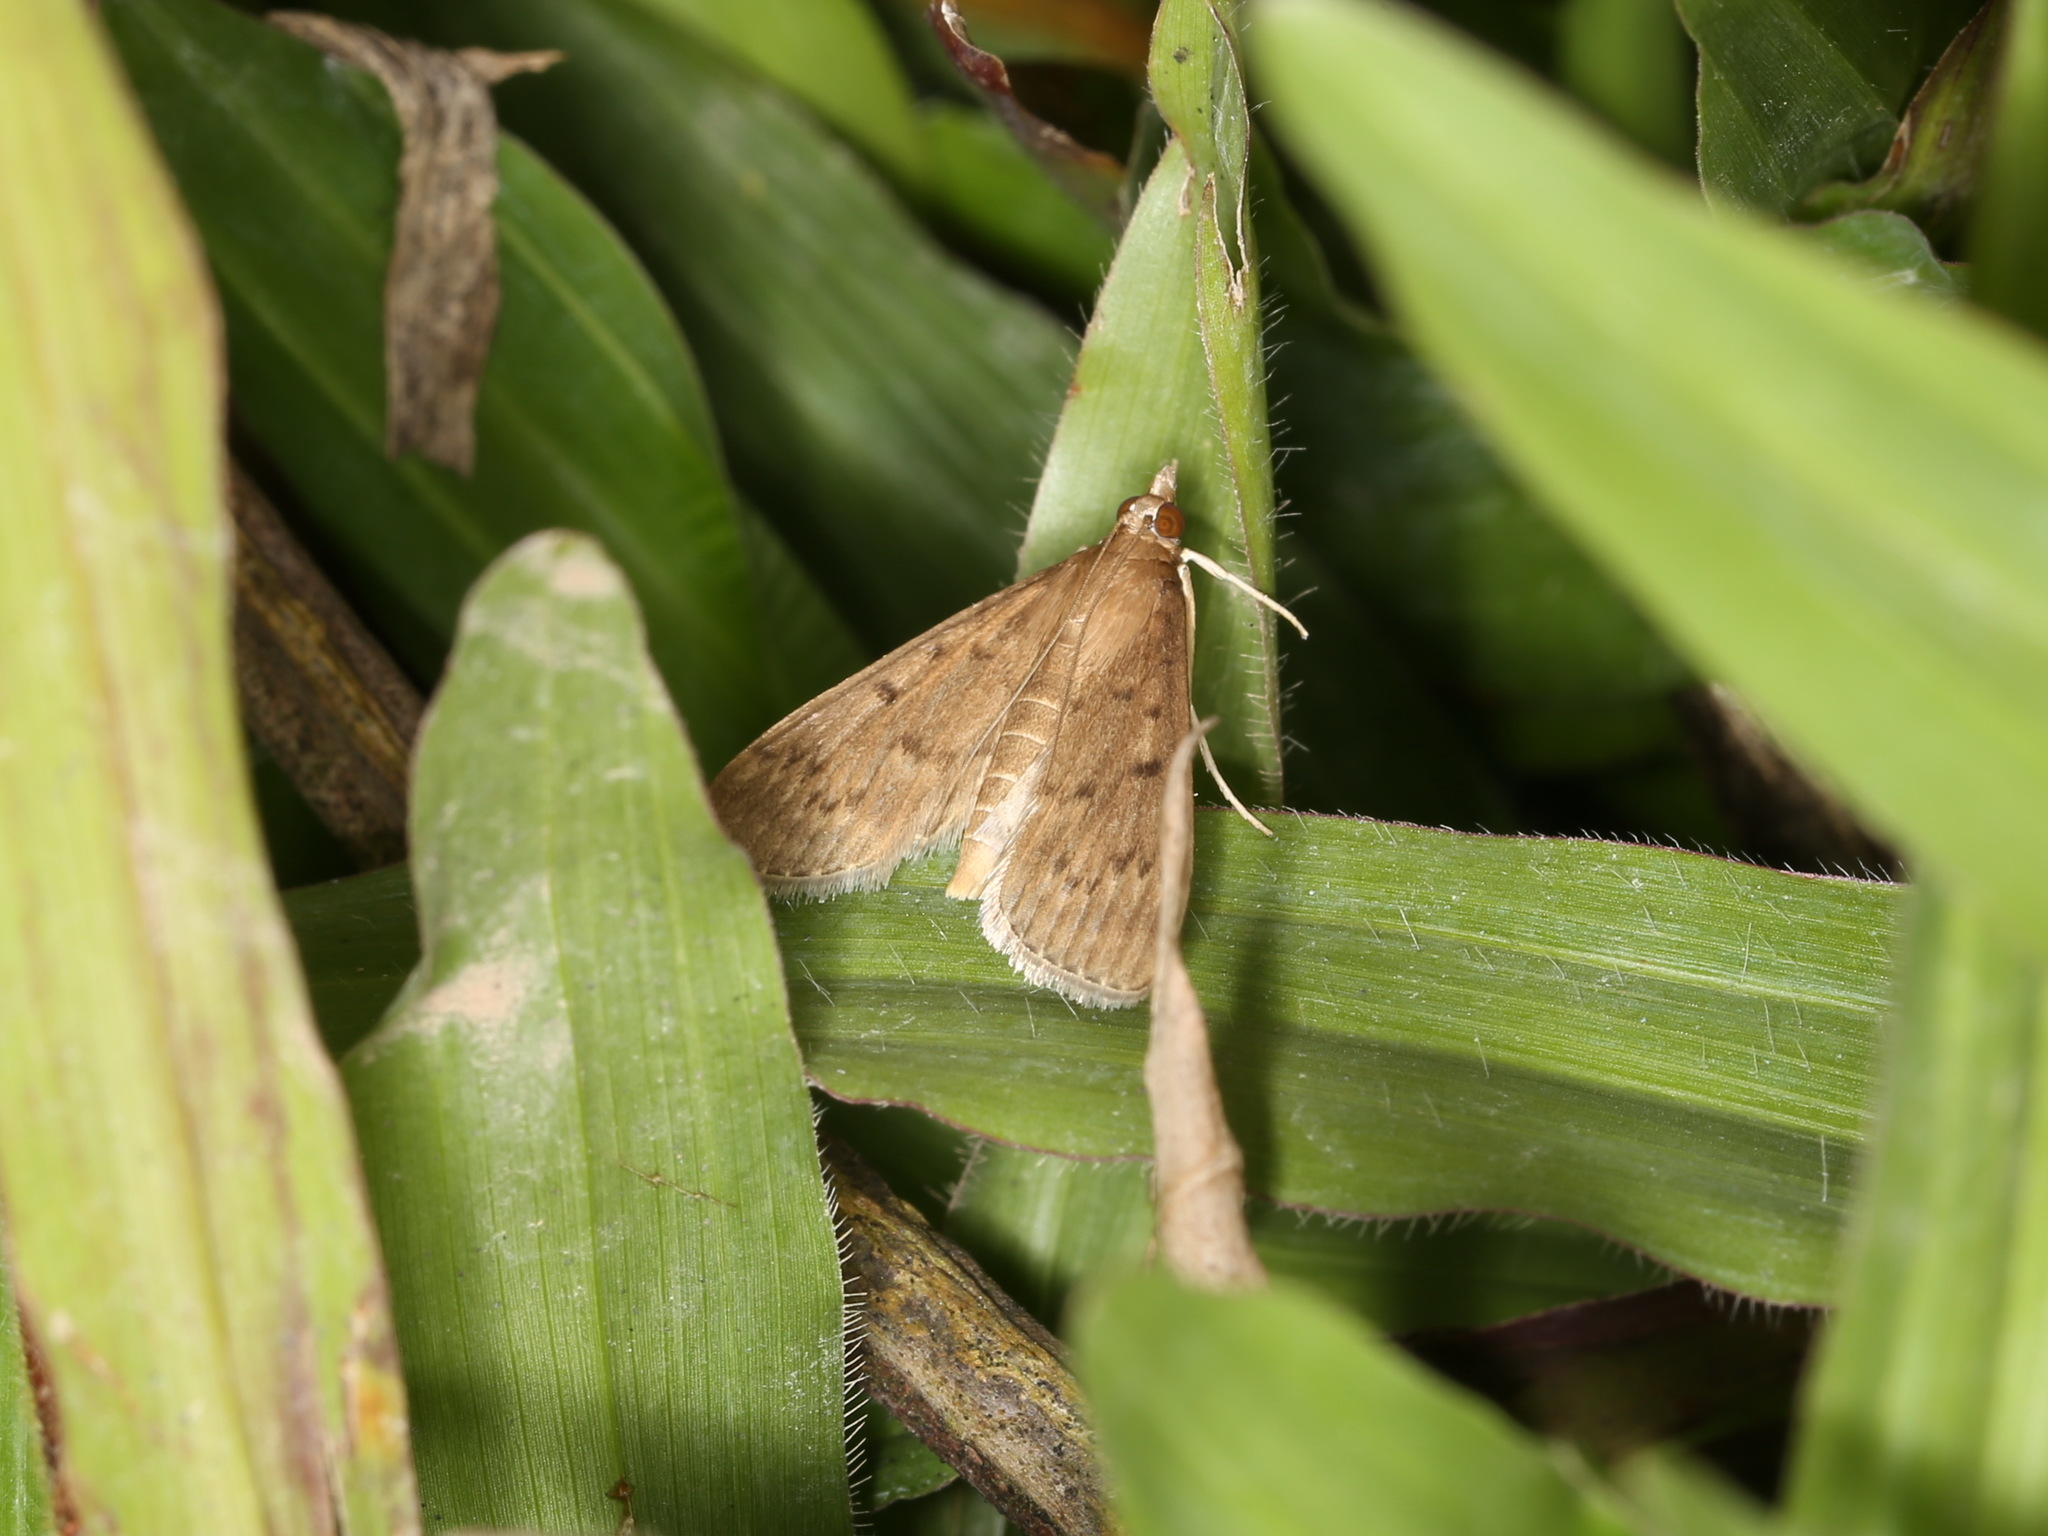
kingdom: Animalia
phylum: Arthropoda
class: Insecta
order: Lepidoptera
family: Crambidae
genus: Herpetogramma
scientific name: Herpetogramma licarsisalis
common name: Grass webworm
